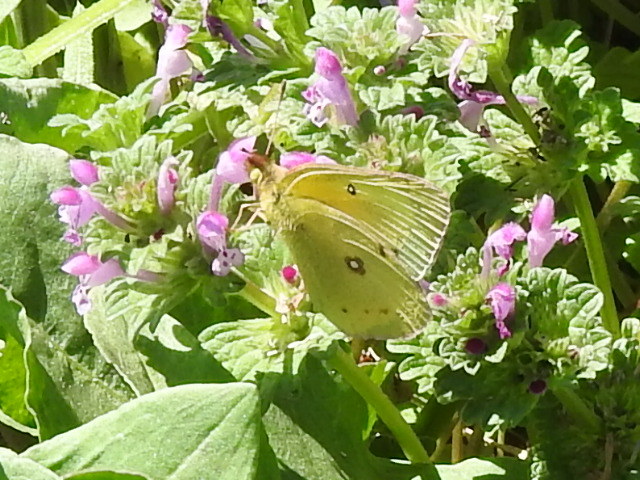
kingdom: Animalia
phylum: Arthropoda
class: Insecta
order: Lepidoptera
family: Pieridae
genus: Colias
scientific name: Colias eurytheme
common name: Alfalfa butterfly
